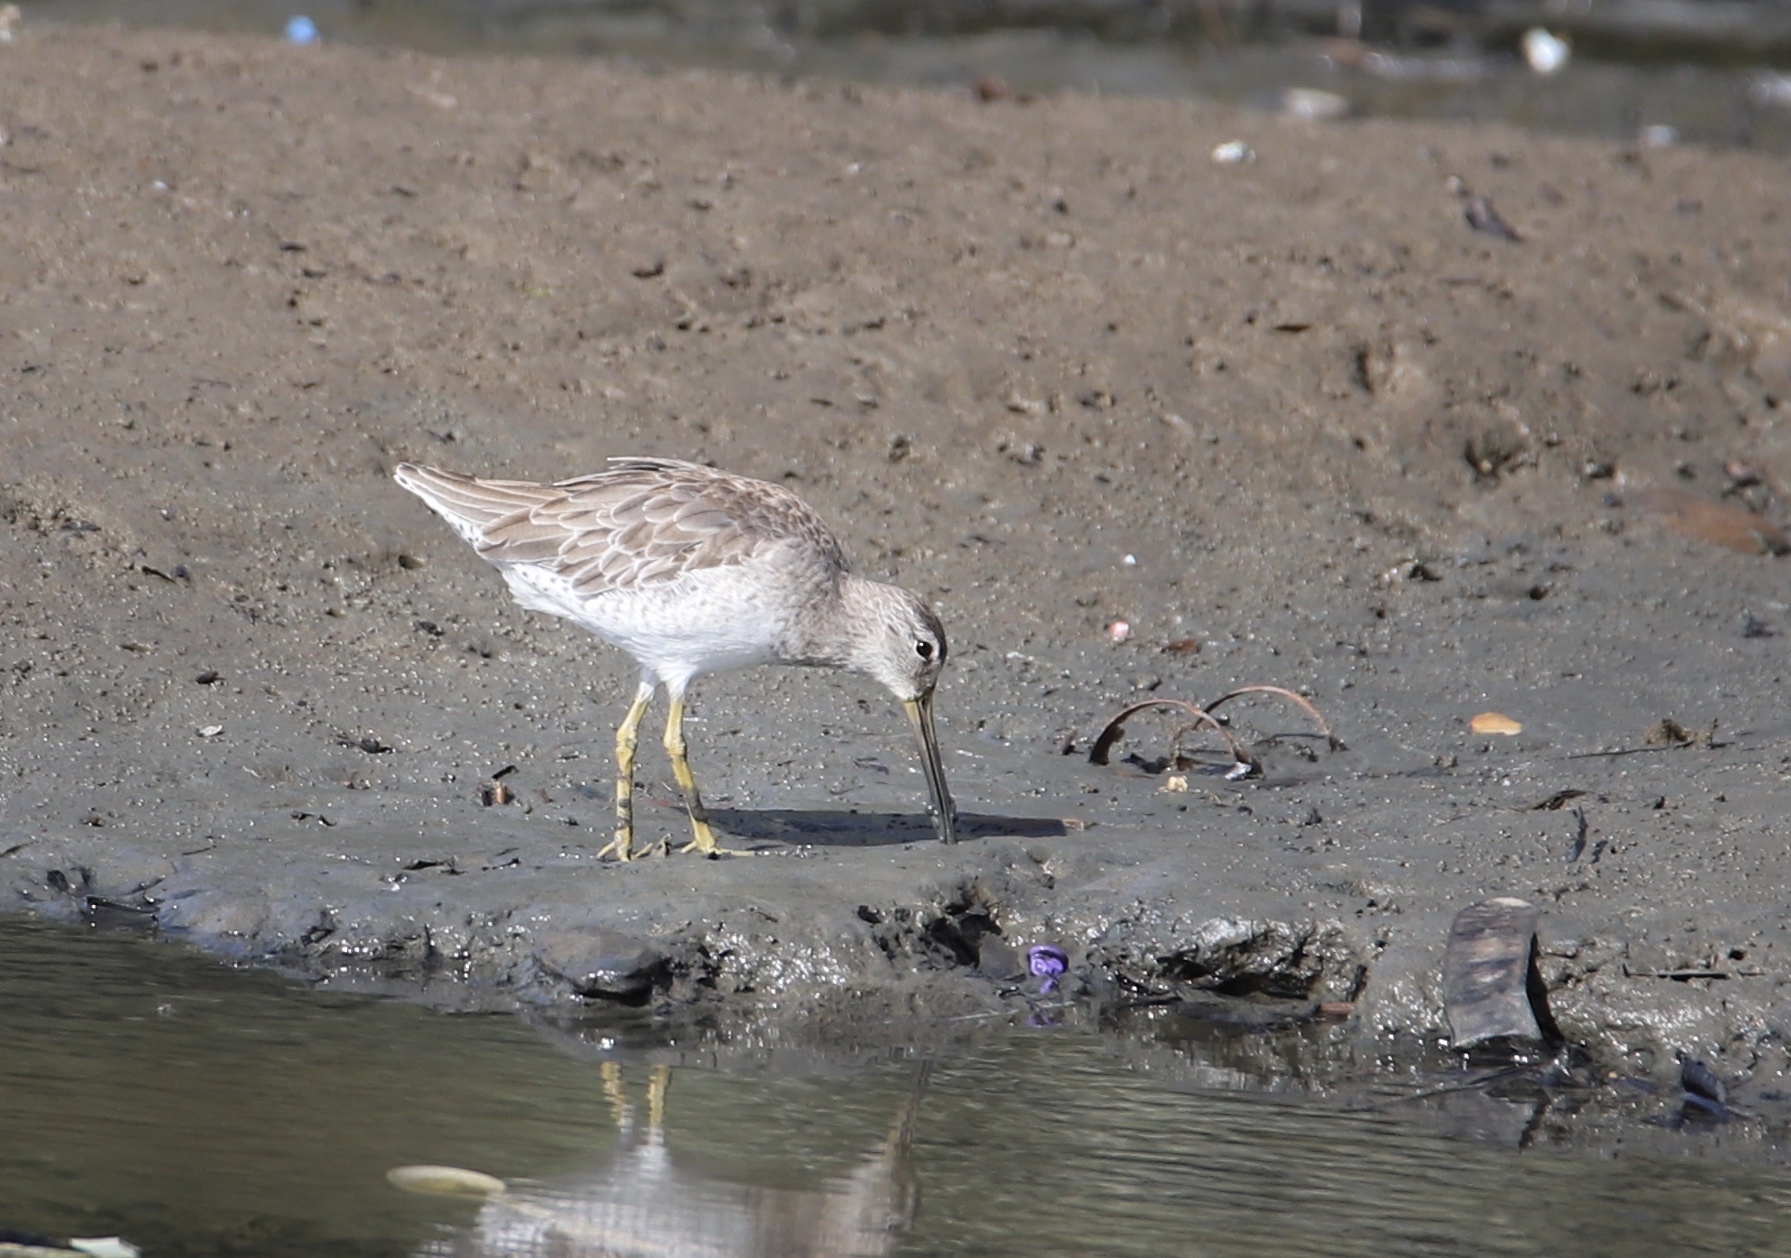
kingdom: Animalia
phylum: Chordata
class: Aves
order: Charadriiformes
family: Scolopacidae
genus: Limnodromus
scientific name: Limnodromus griseus
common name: Short-billed dowitcher
